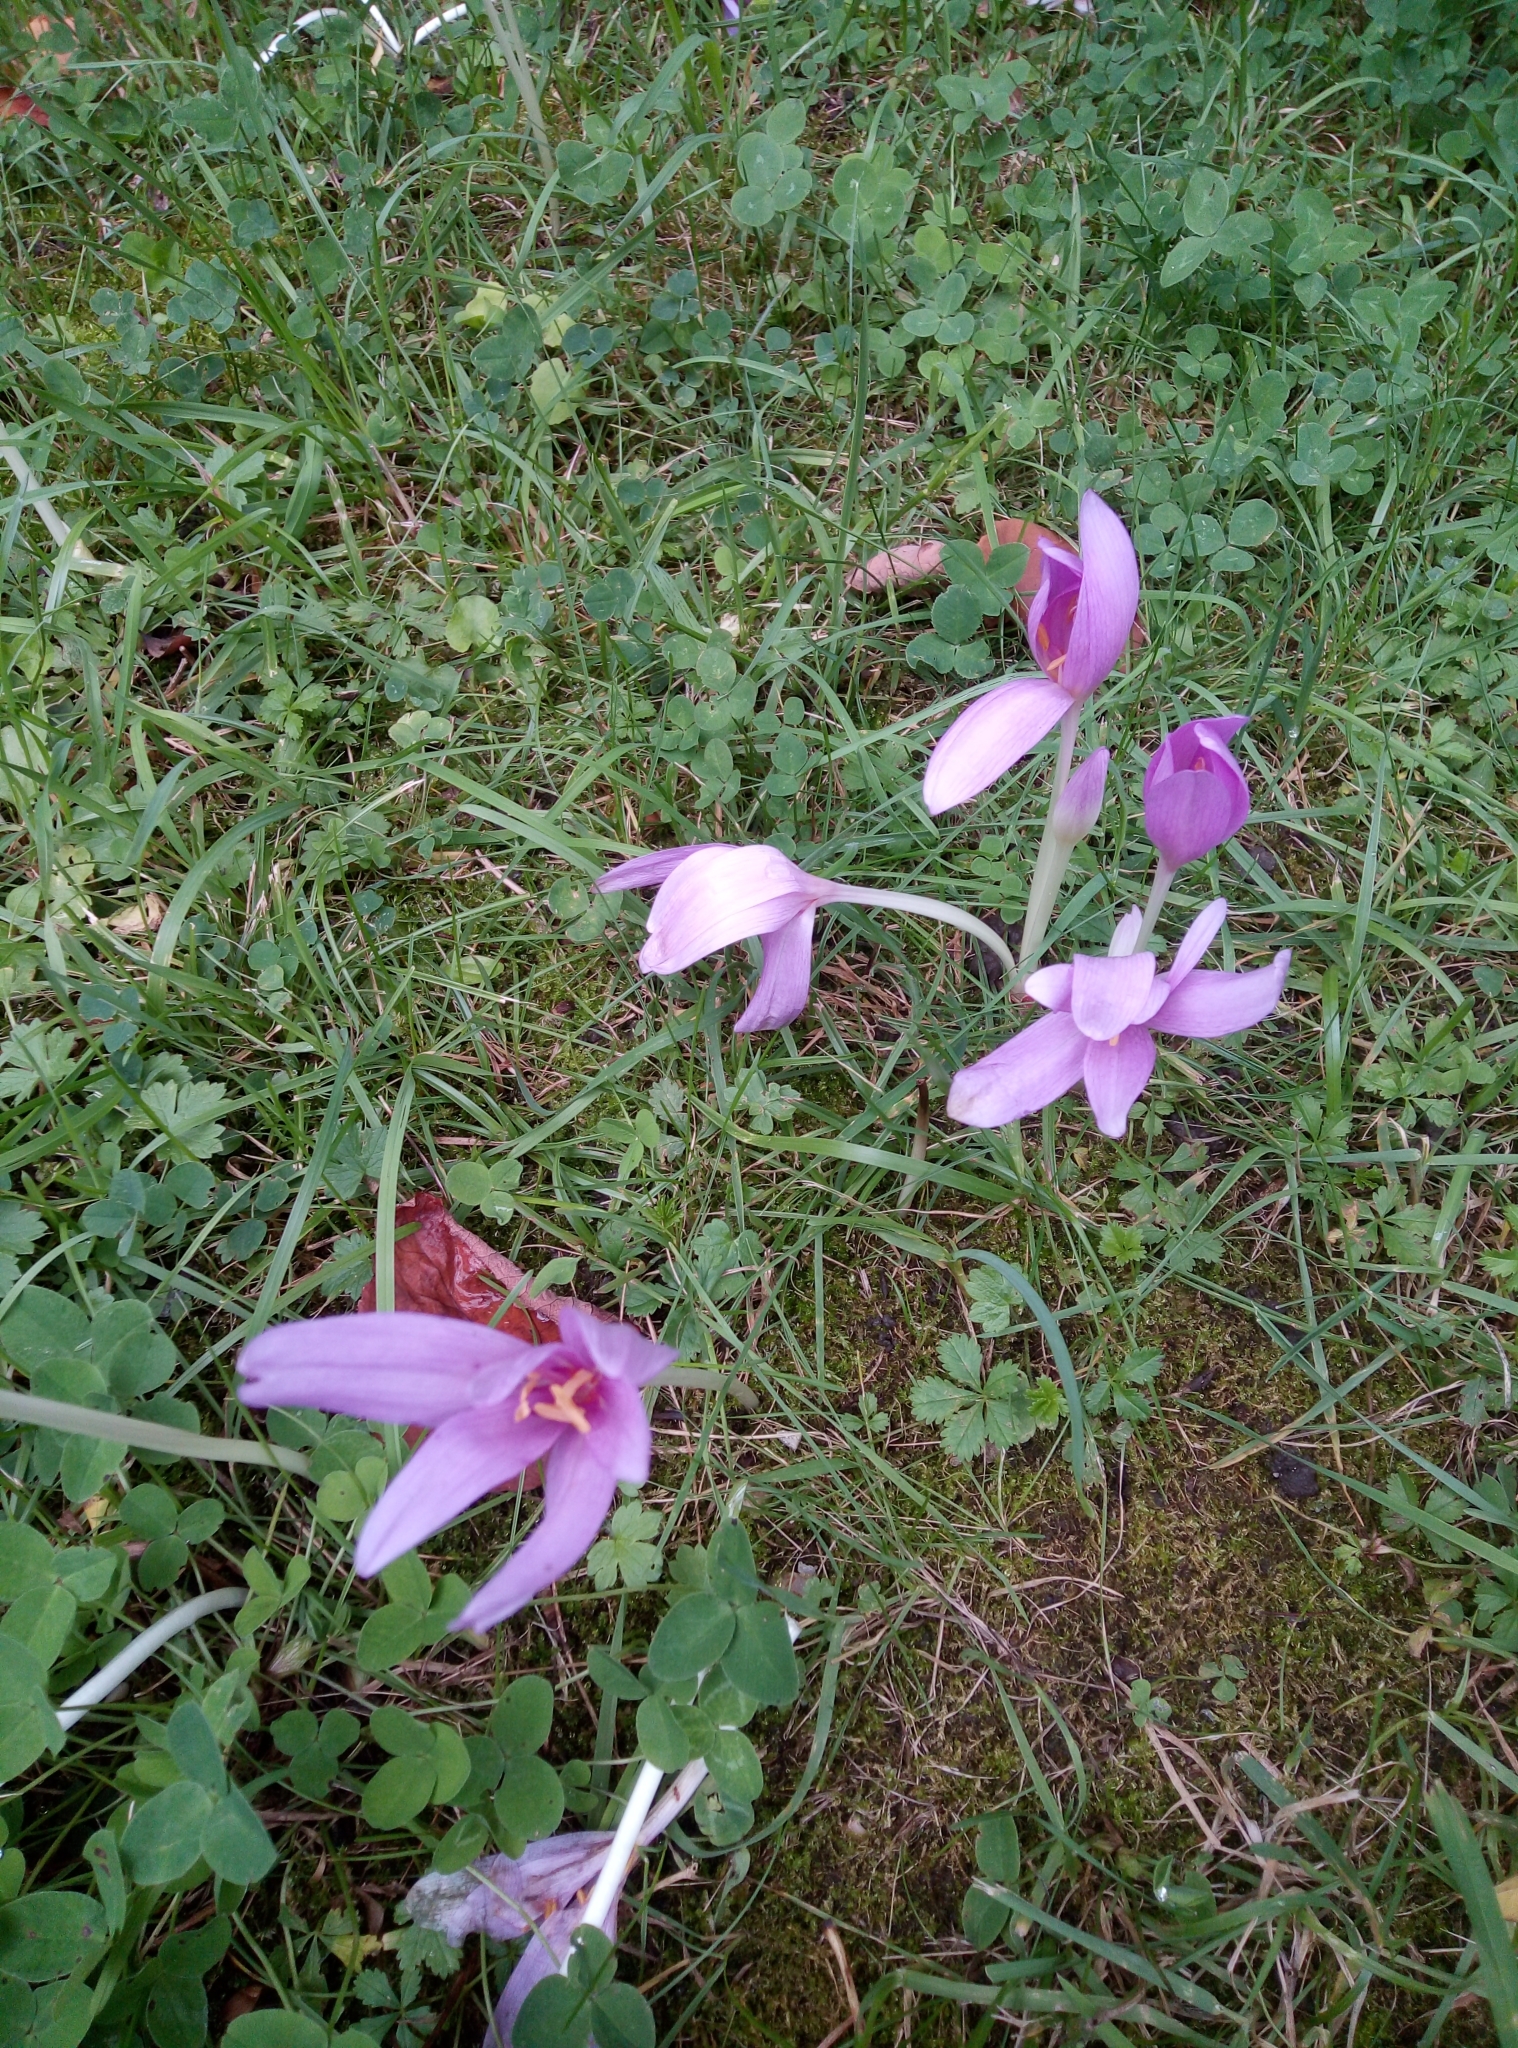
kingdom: Plantae
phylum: Tracheophyta
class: Liliopsida
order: Liliales
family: Colchicaceae
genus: Colchicum
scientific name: Colchicum autumnale
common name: Autumn crocus
